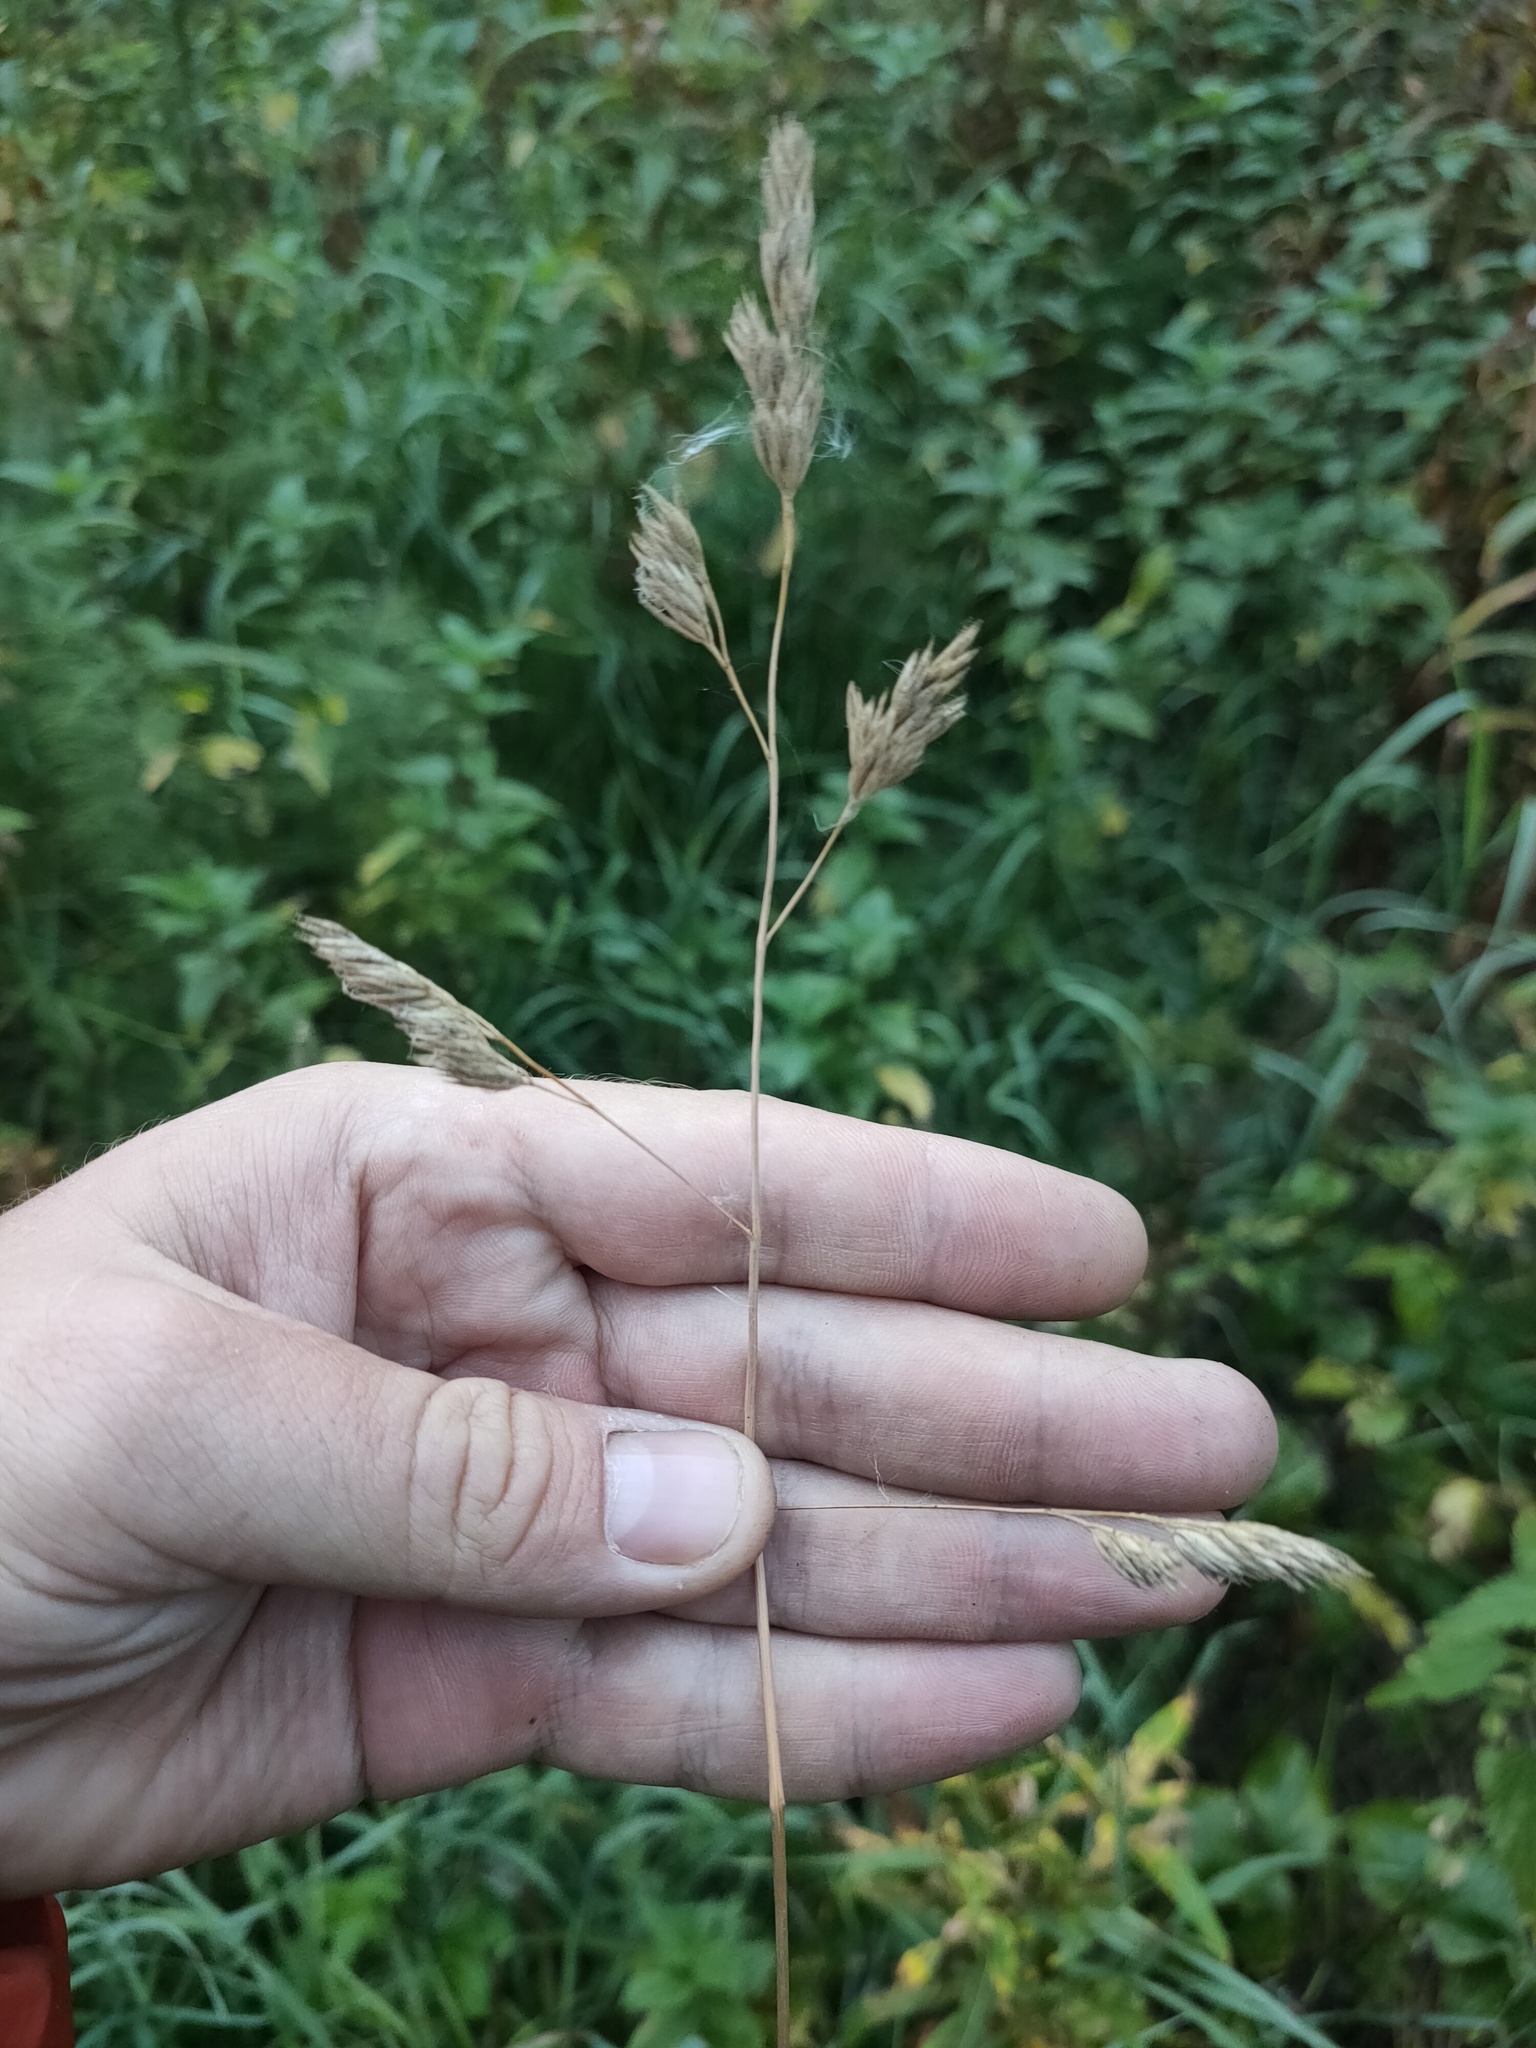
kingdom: Plantae
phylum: Tracheophyta
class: Liliopsida
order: Poales
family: Poaceae
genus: Dactylis
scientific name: Dactylis glomerata
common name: Orchardgrass
